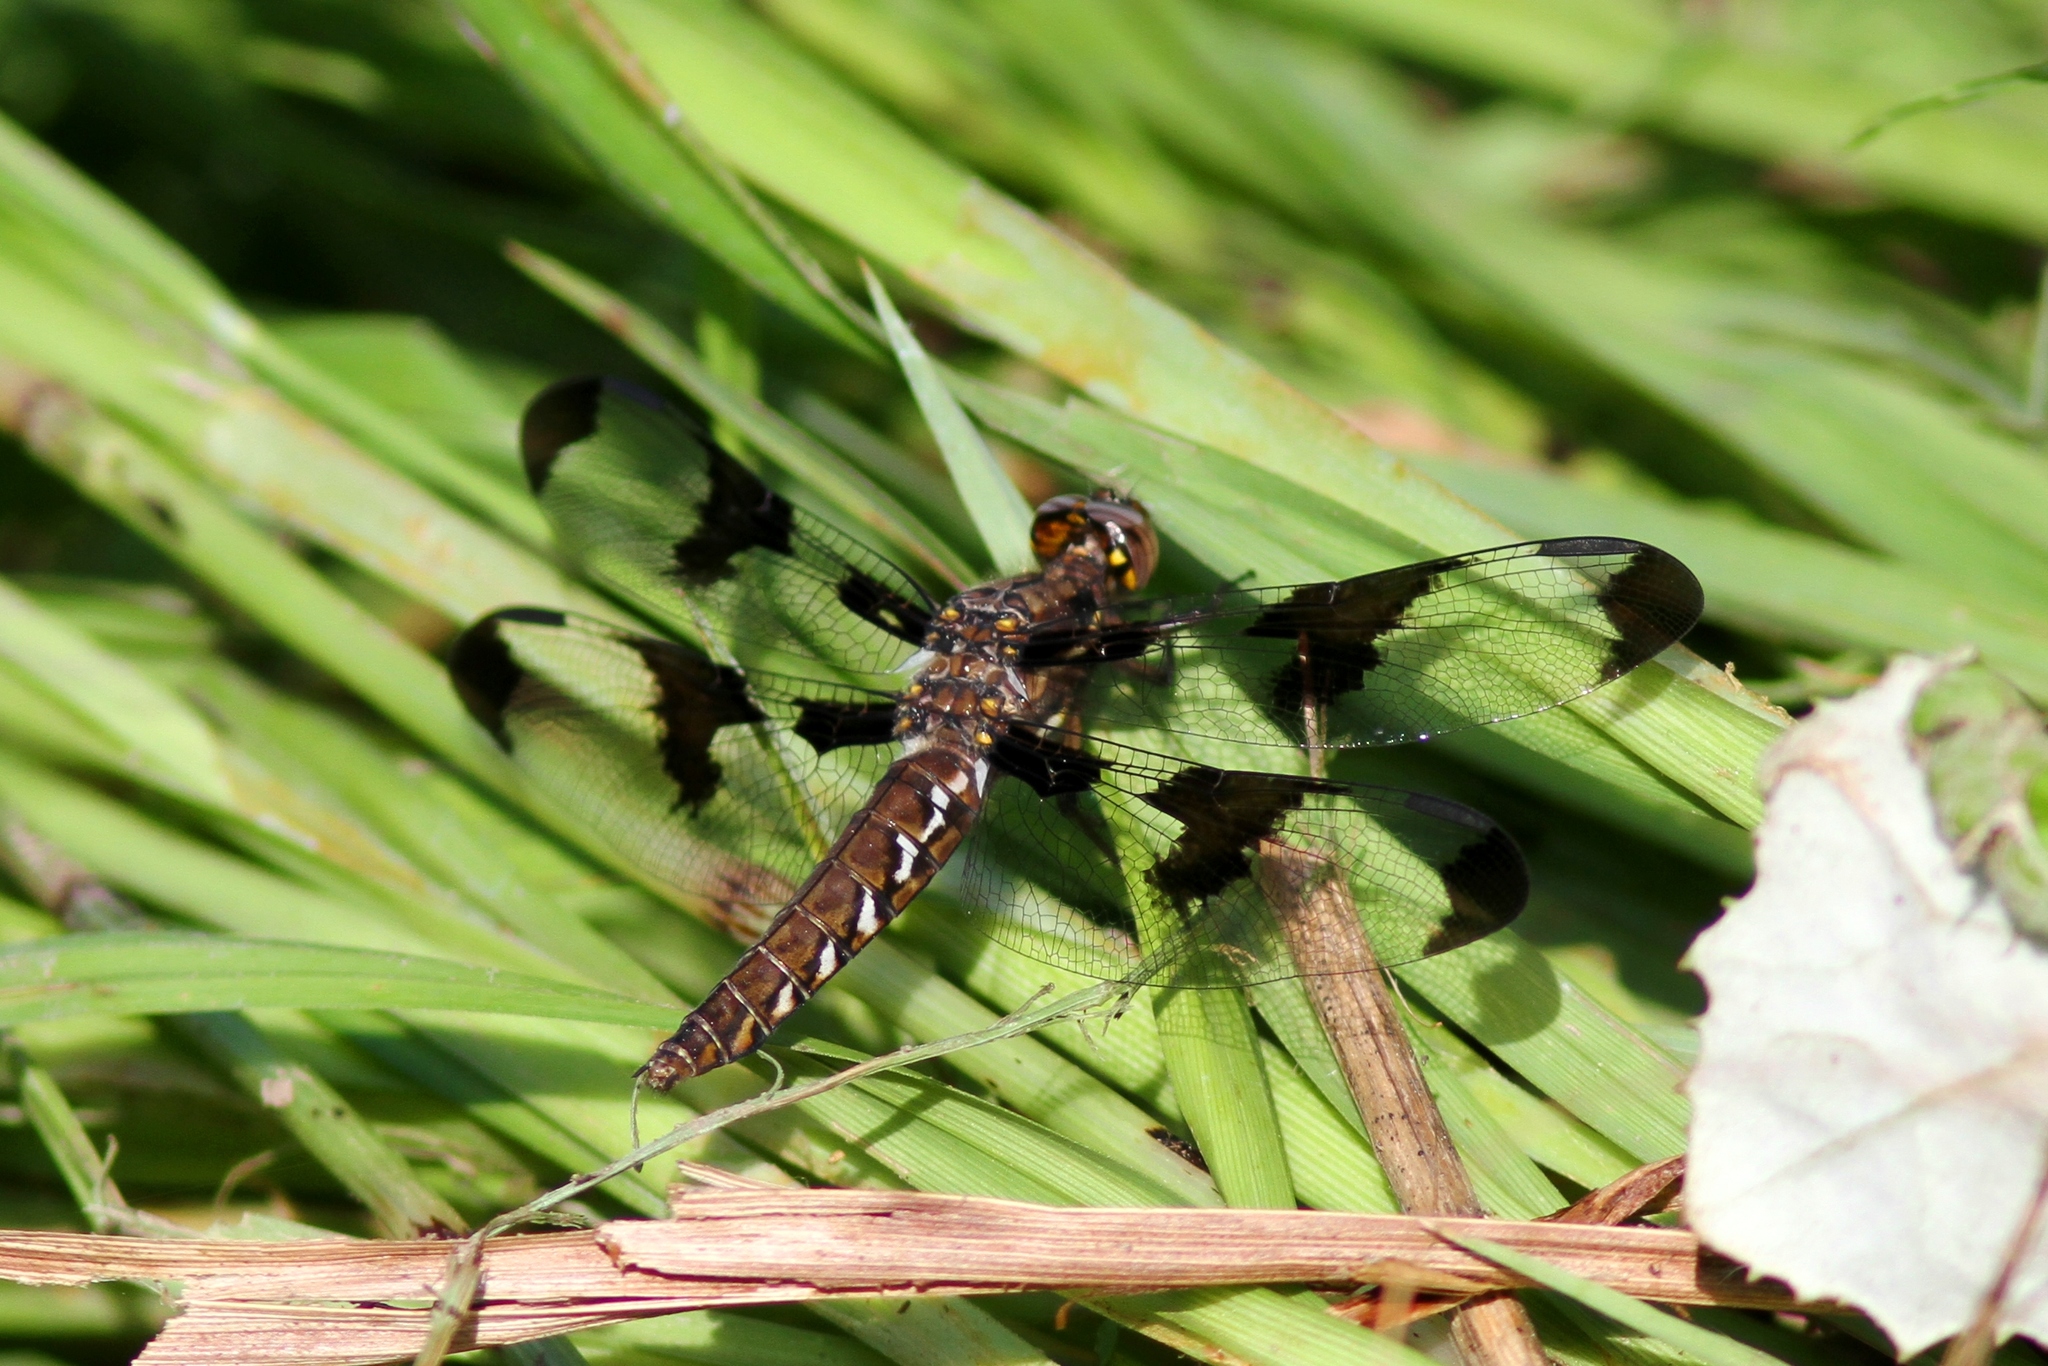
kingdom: Animalia
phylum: Arthropoda
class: Insecta
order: Odonata
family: Libellulidae
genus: Plathemis
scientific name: Plathemis lydia
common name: Common whitetail
